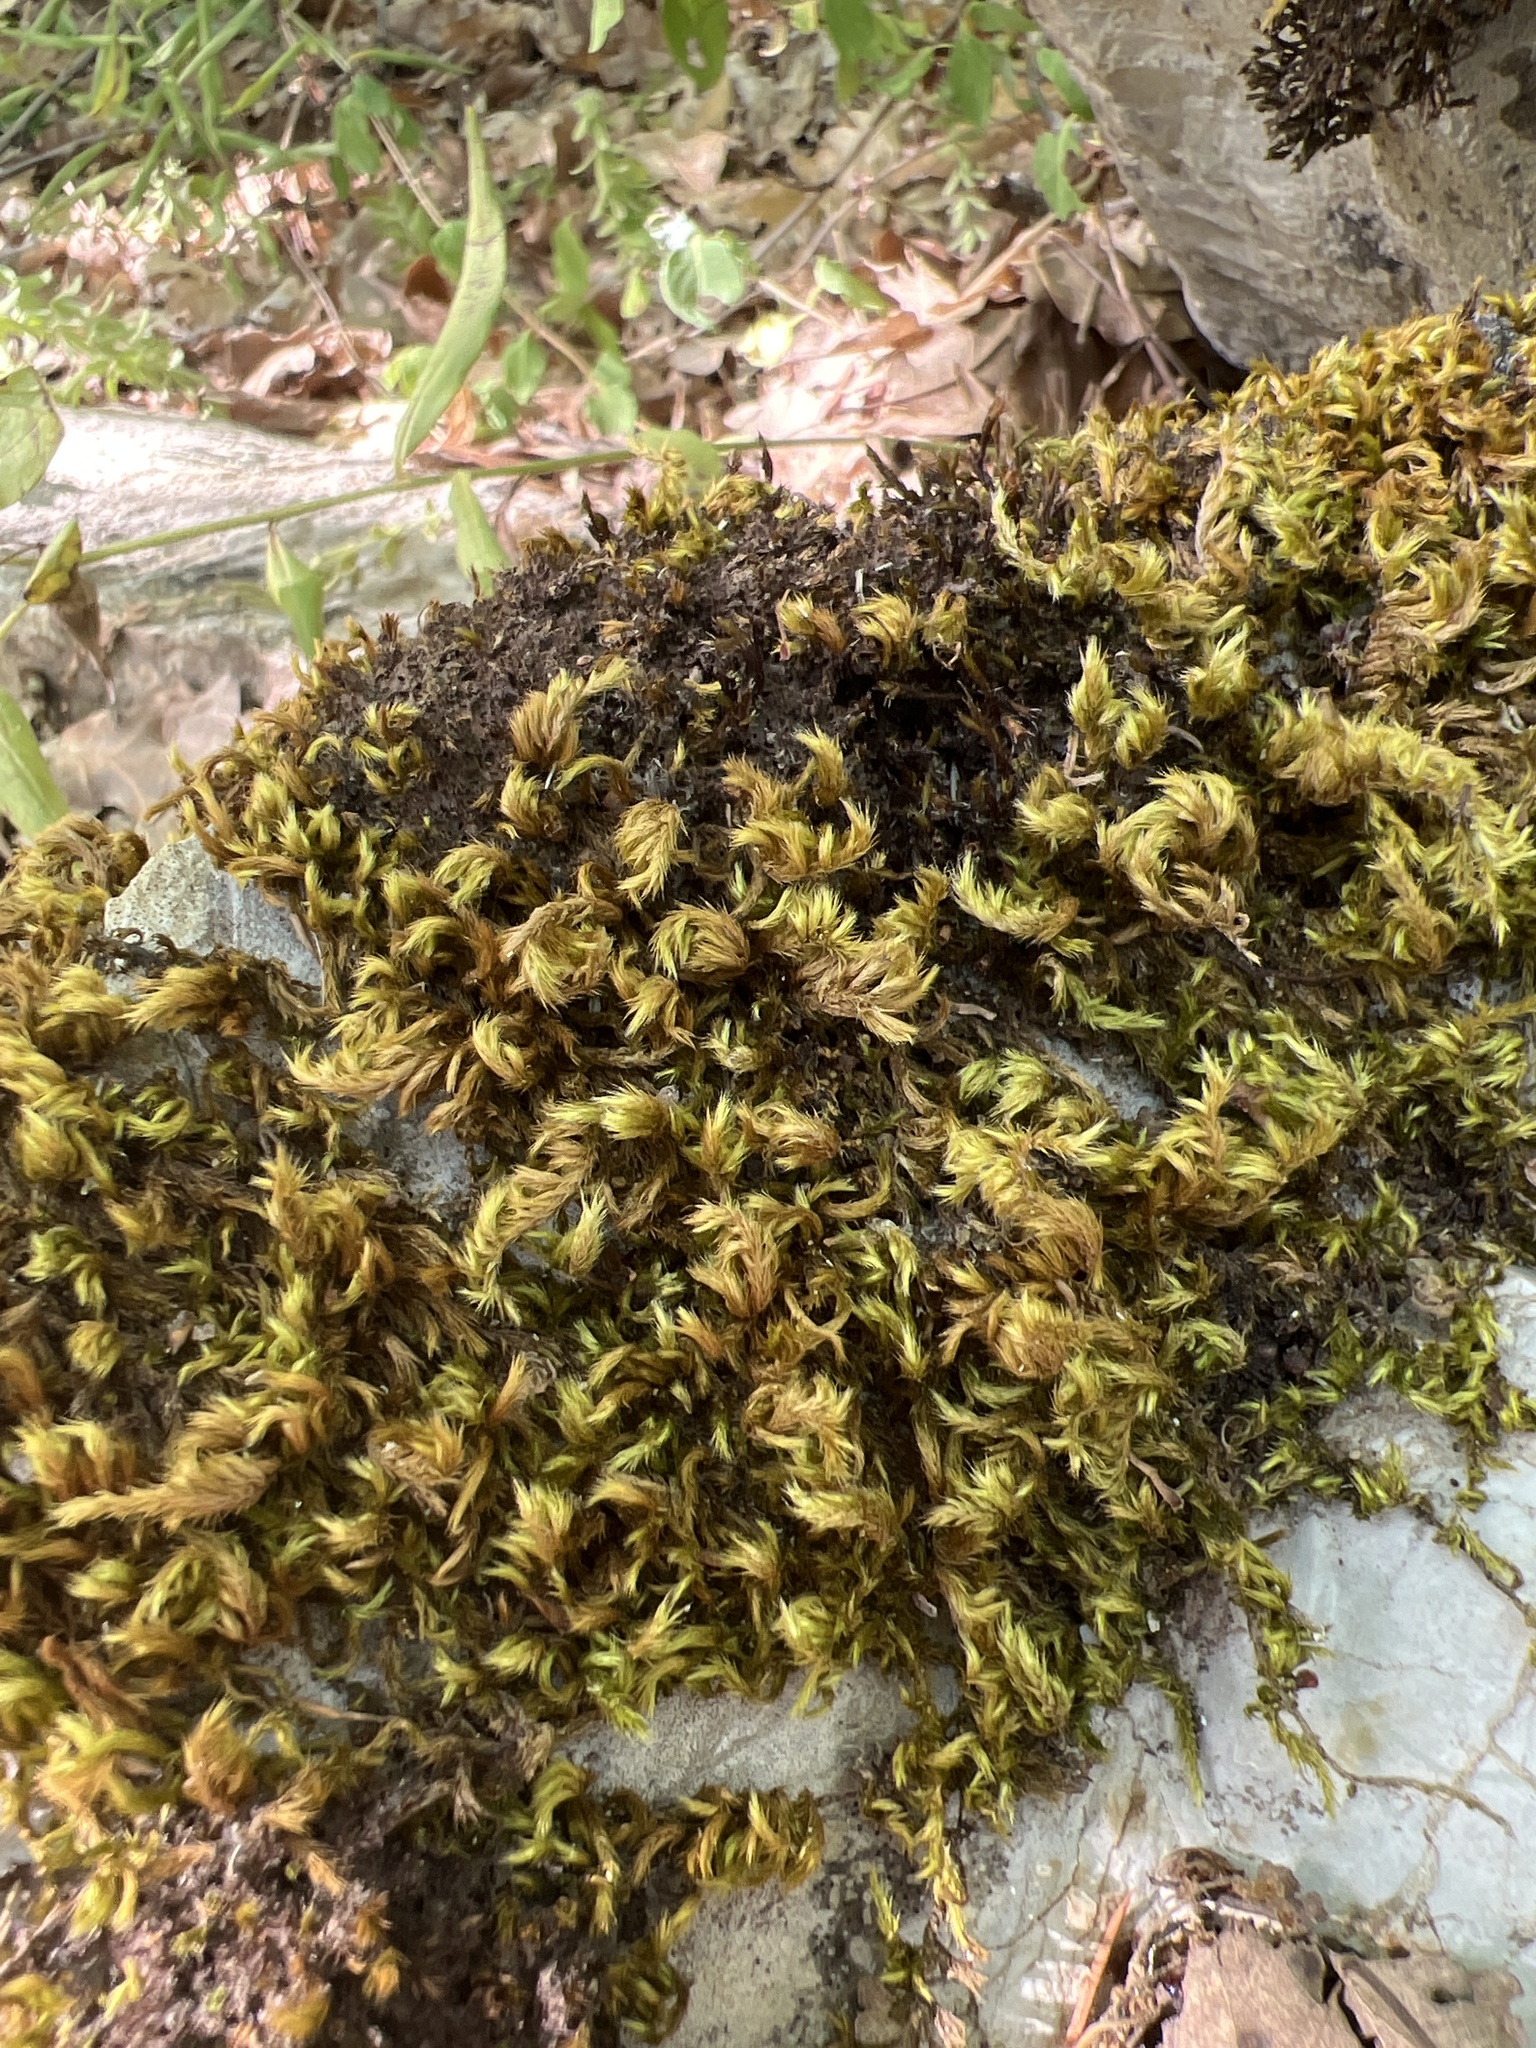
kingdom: Plantae
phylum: Bryophyta
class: Bryopsida
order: Hypnales
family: Brachytheciaceae
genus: Homalothecium
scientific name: Homalothecium sericeum
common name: Silky wall feather-moss
